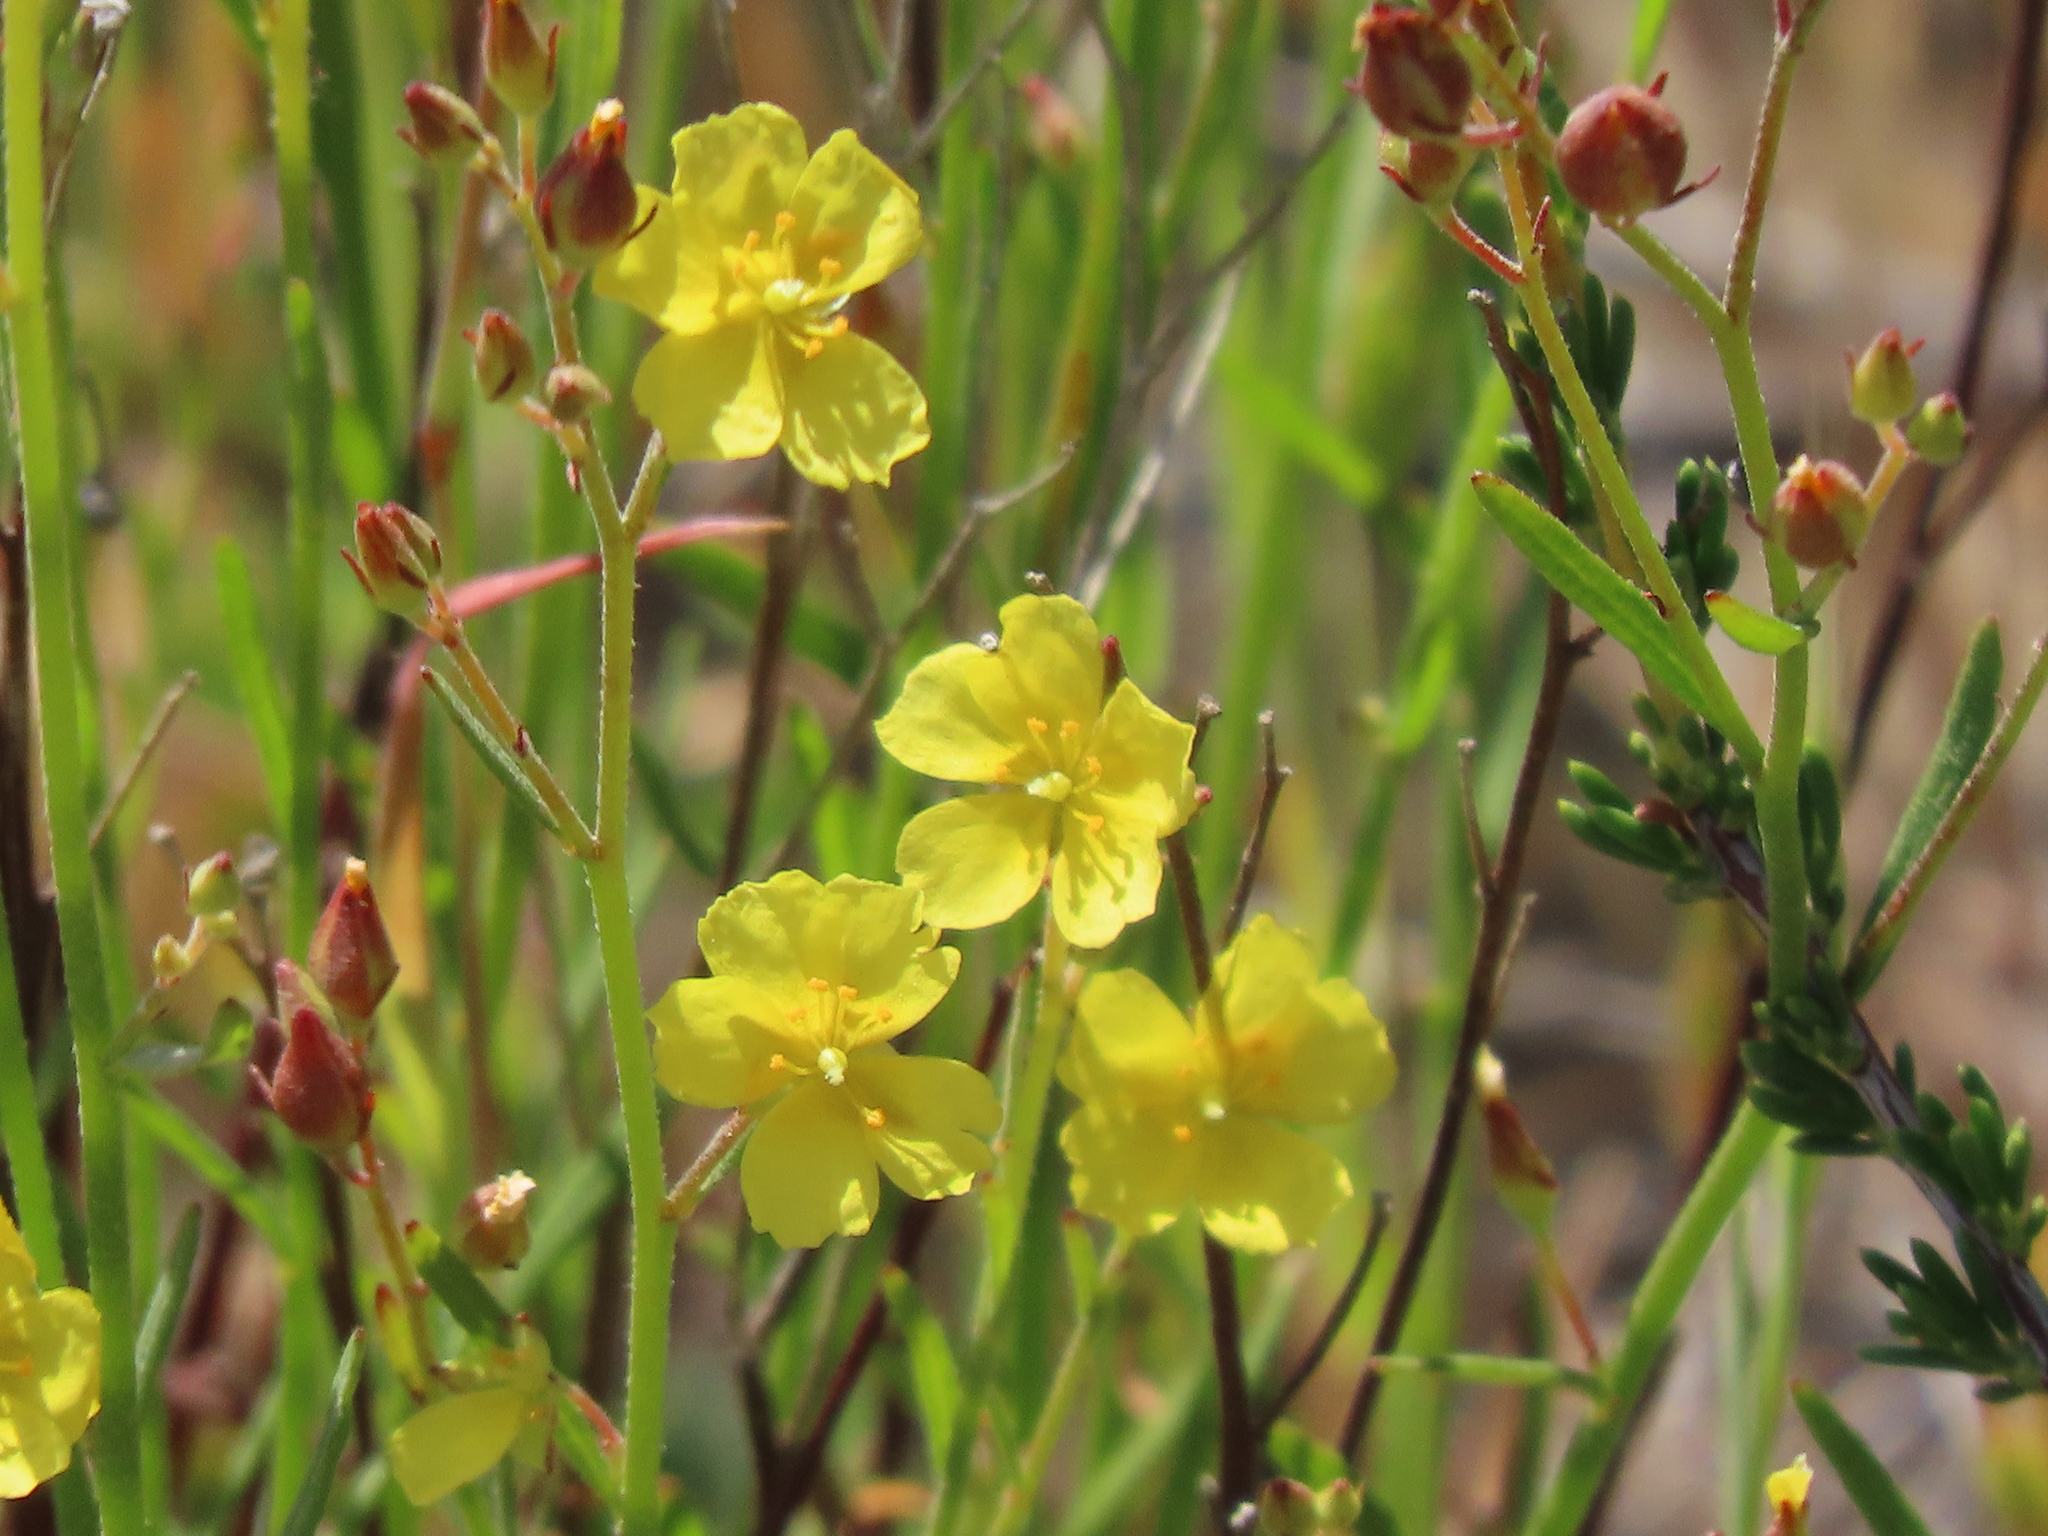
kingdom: Plantae
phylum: Tracheophyta
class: Magnoliopsida
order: Malvales
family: Cistaceae
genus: Crocanthemum
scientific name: Crocanthemum scoparium
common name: Broom-rose
